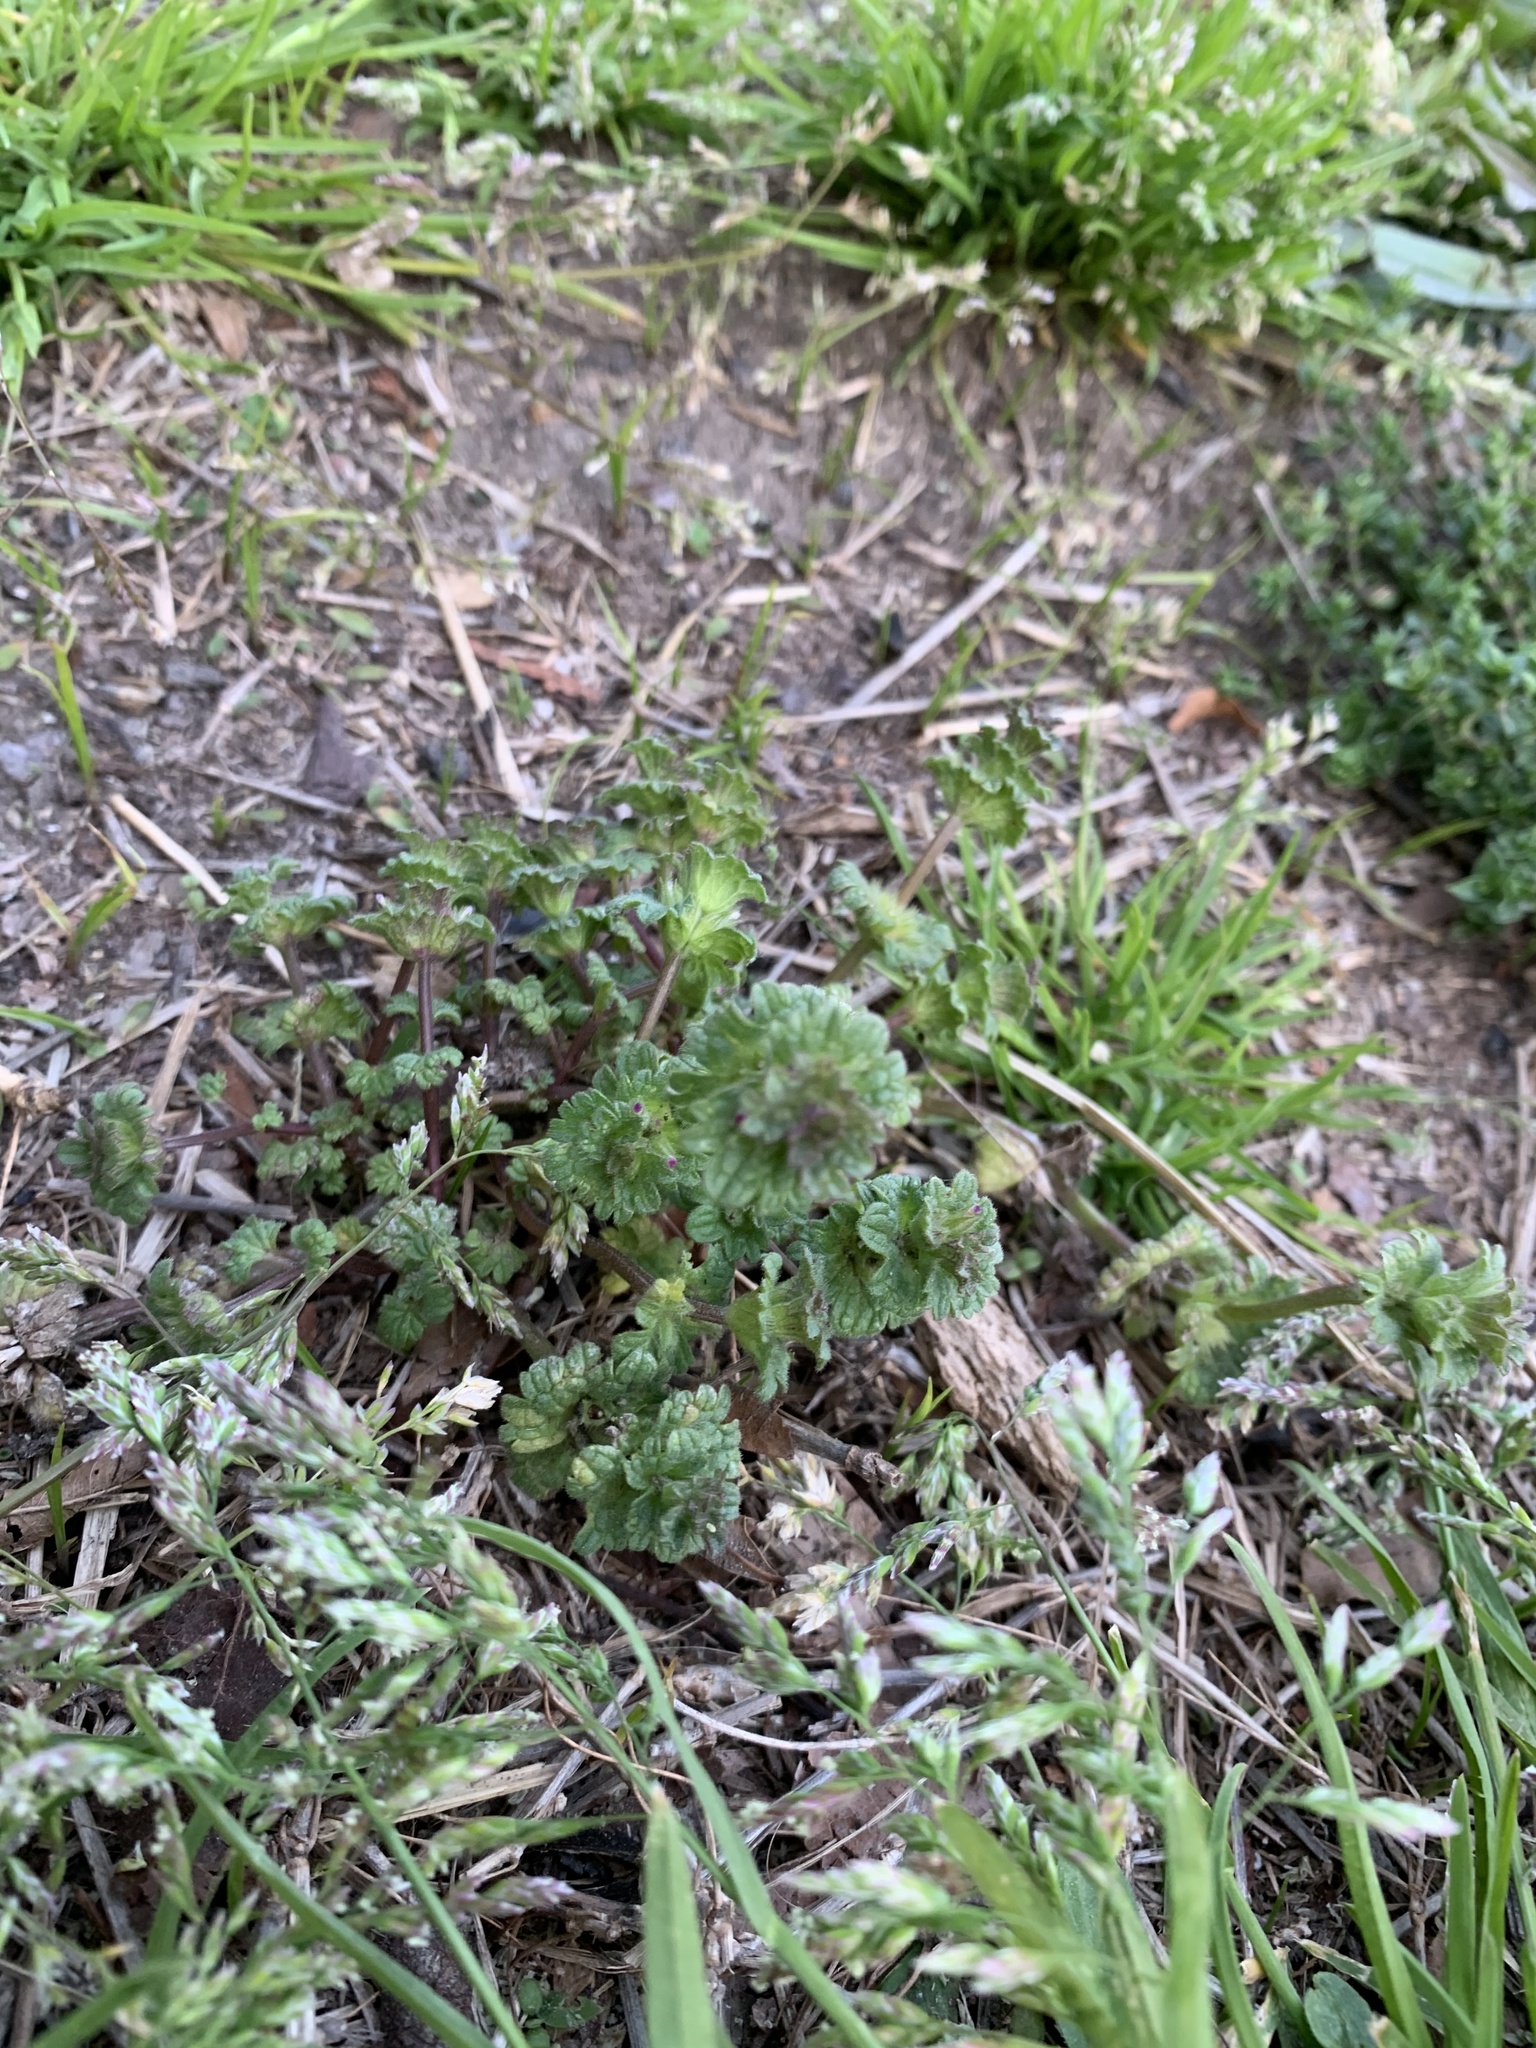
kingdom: Plantae
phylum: Tracheophyta
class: Magnoliopsida
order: Lamiales
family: Lamiaceae
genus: Lamium
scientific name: Lamium amplexicaule
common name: Henbit dead-nettle
